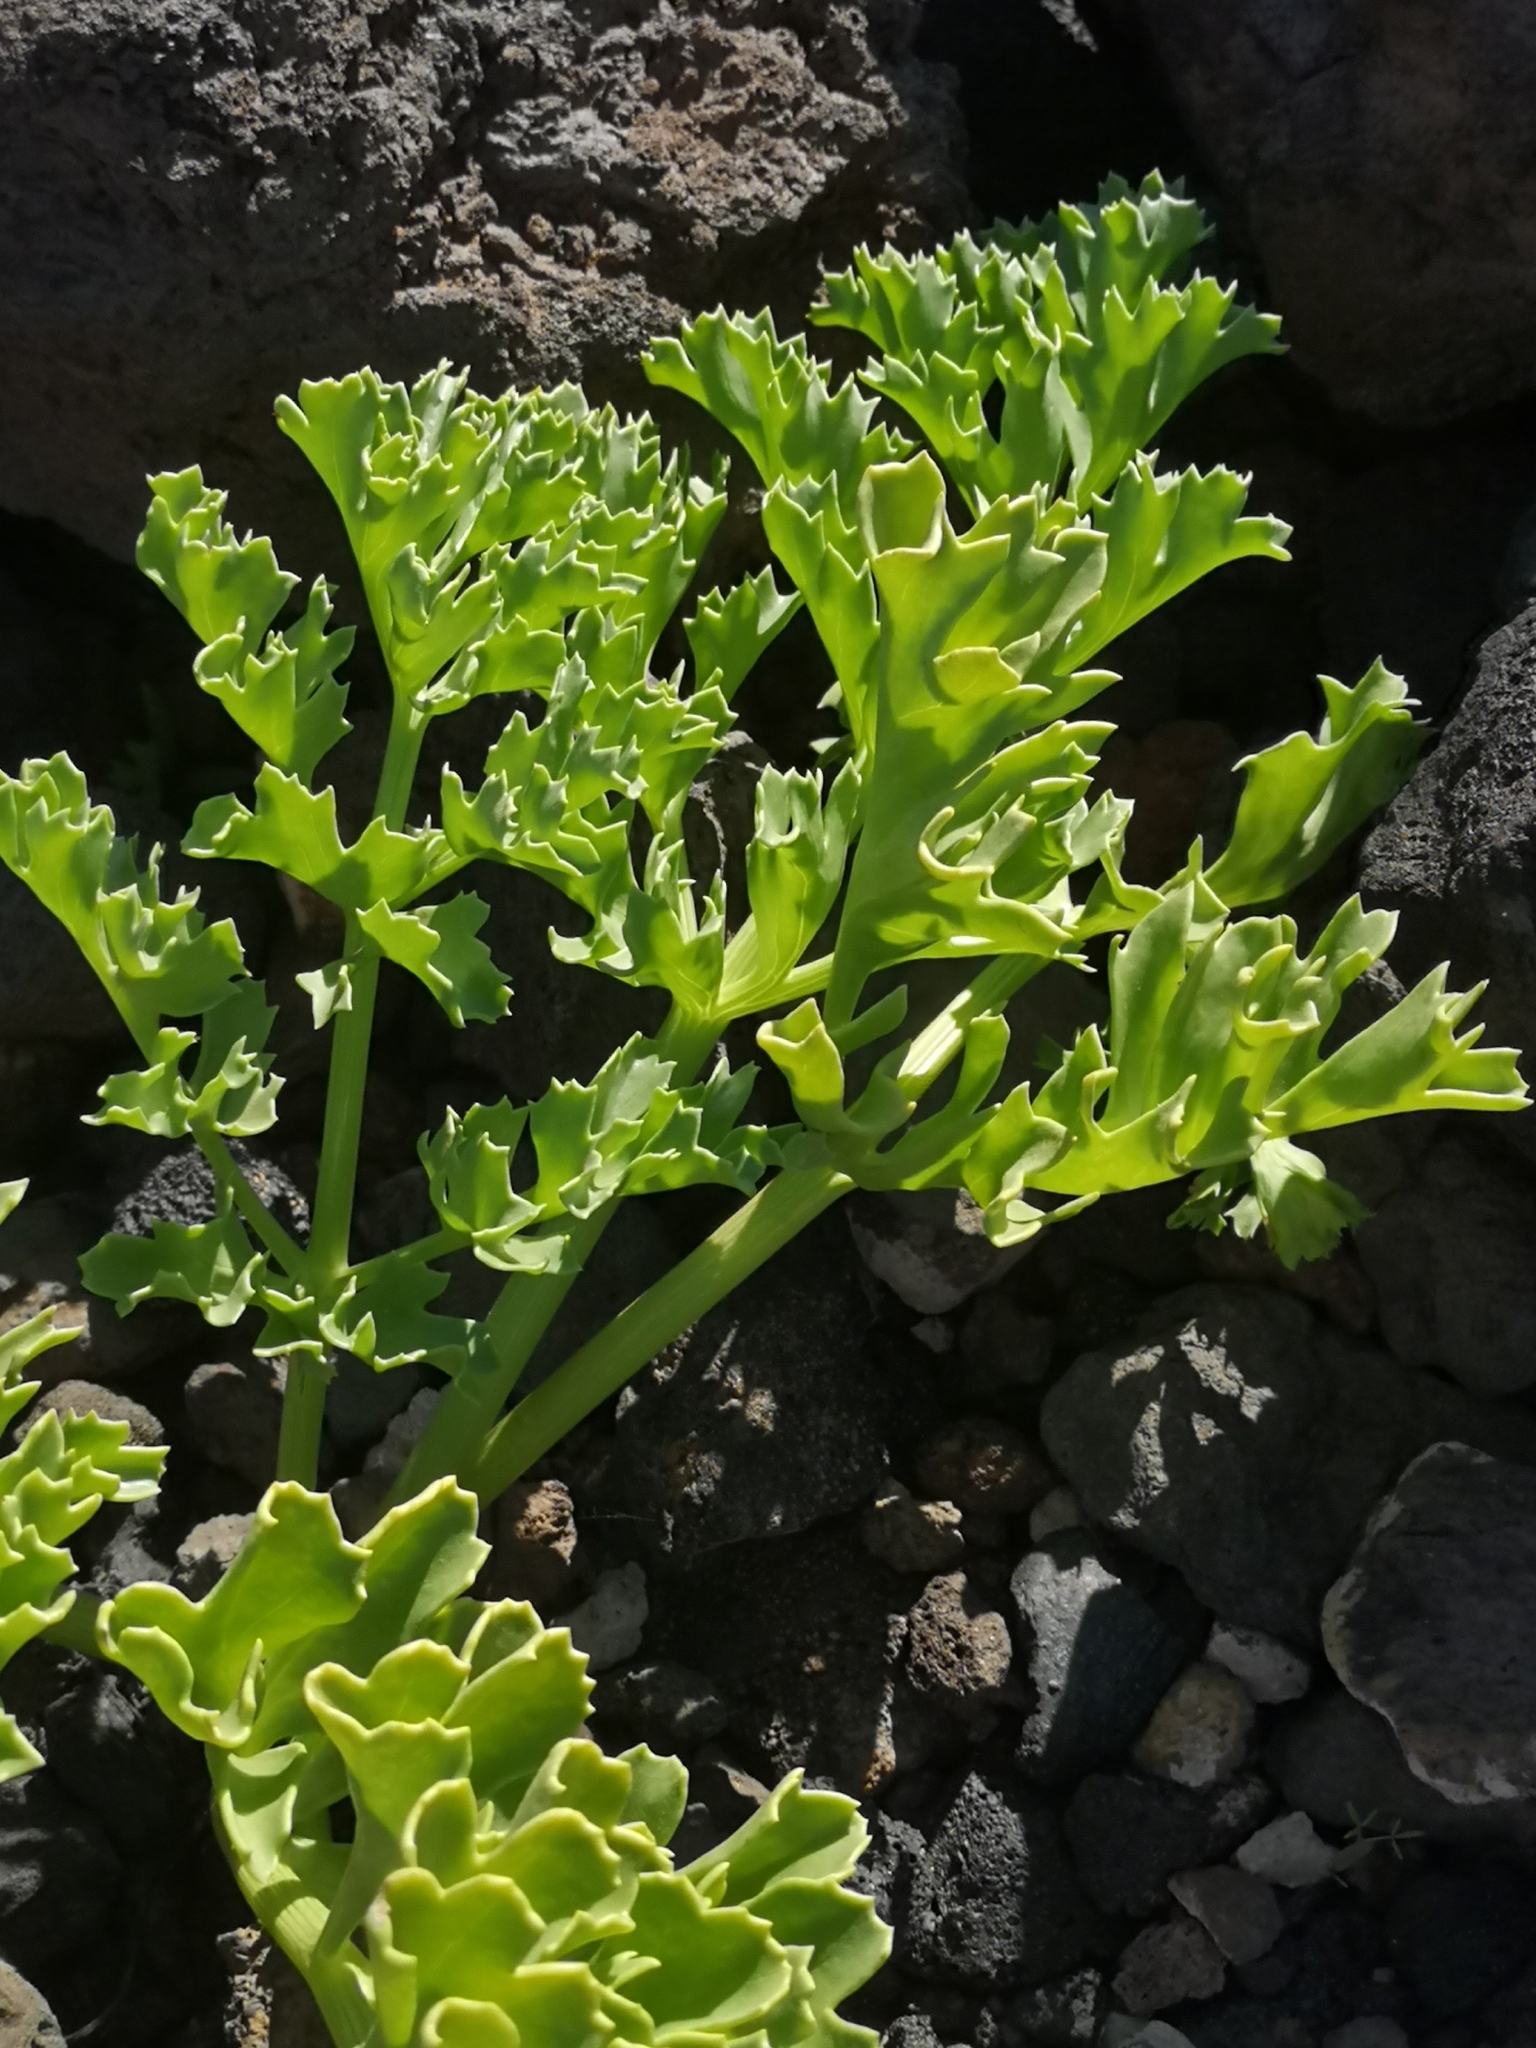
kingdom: Plantae
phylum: Tracheophyta
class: Magnoliopsida
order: Apiales
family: Apiaceae
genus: Astydamia
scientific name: Astydamia latifolia
